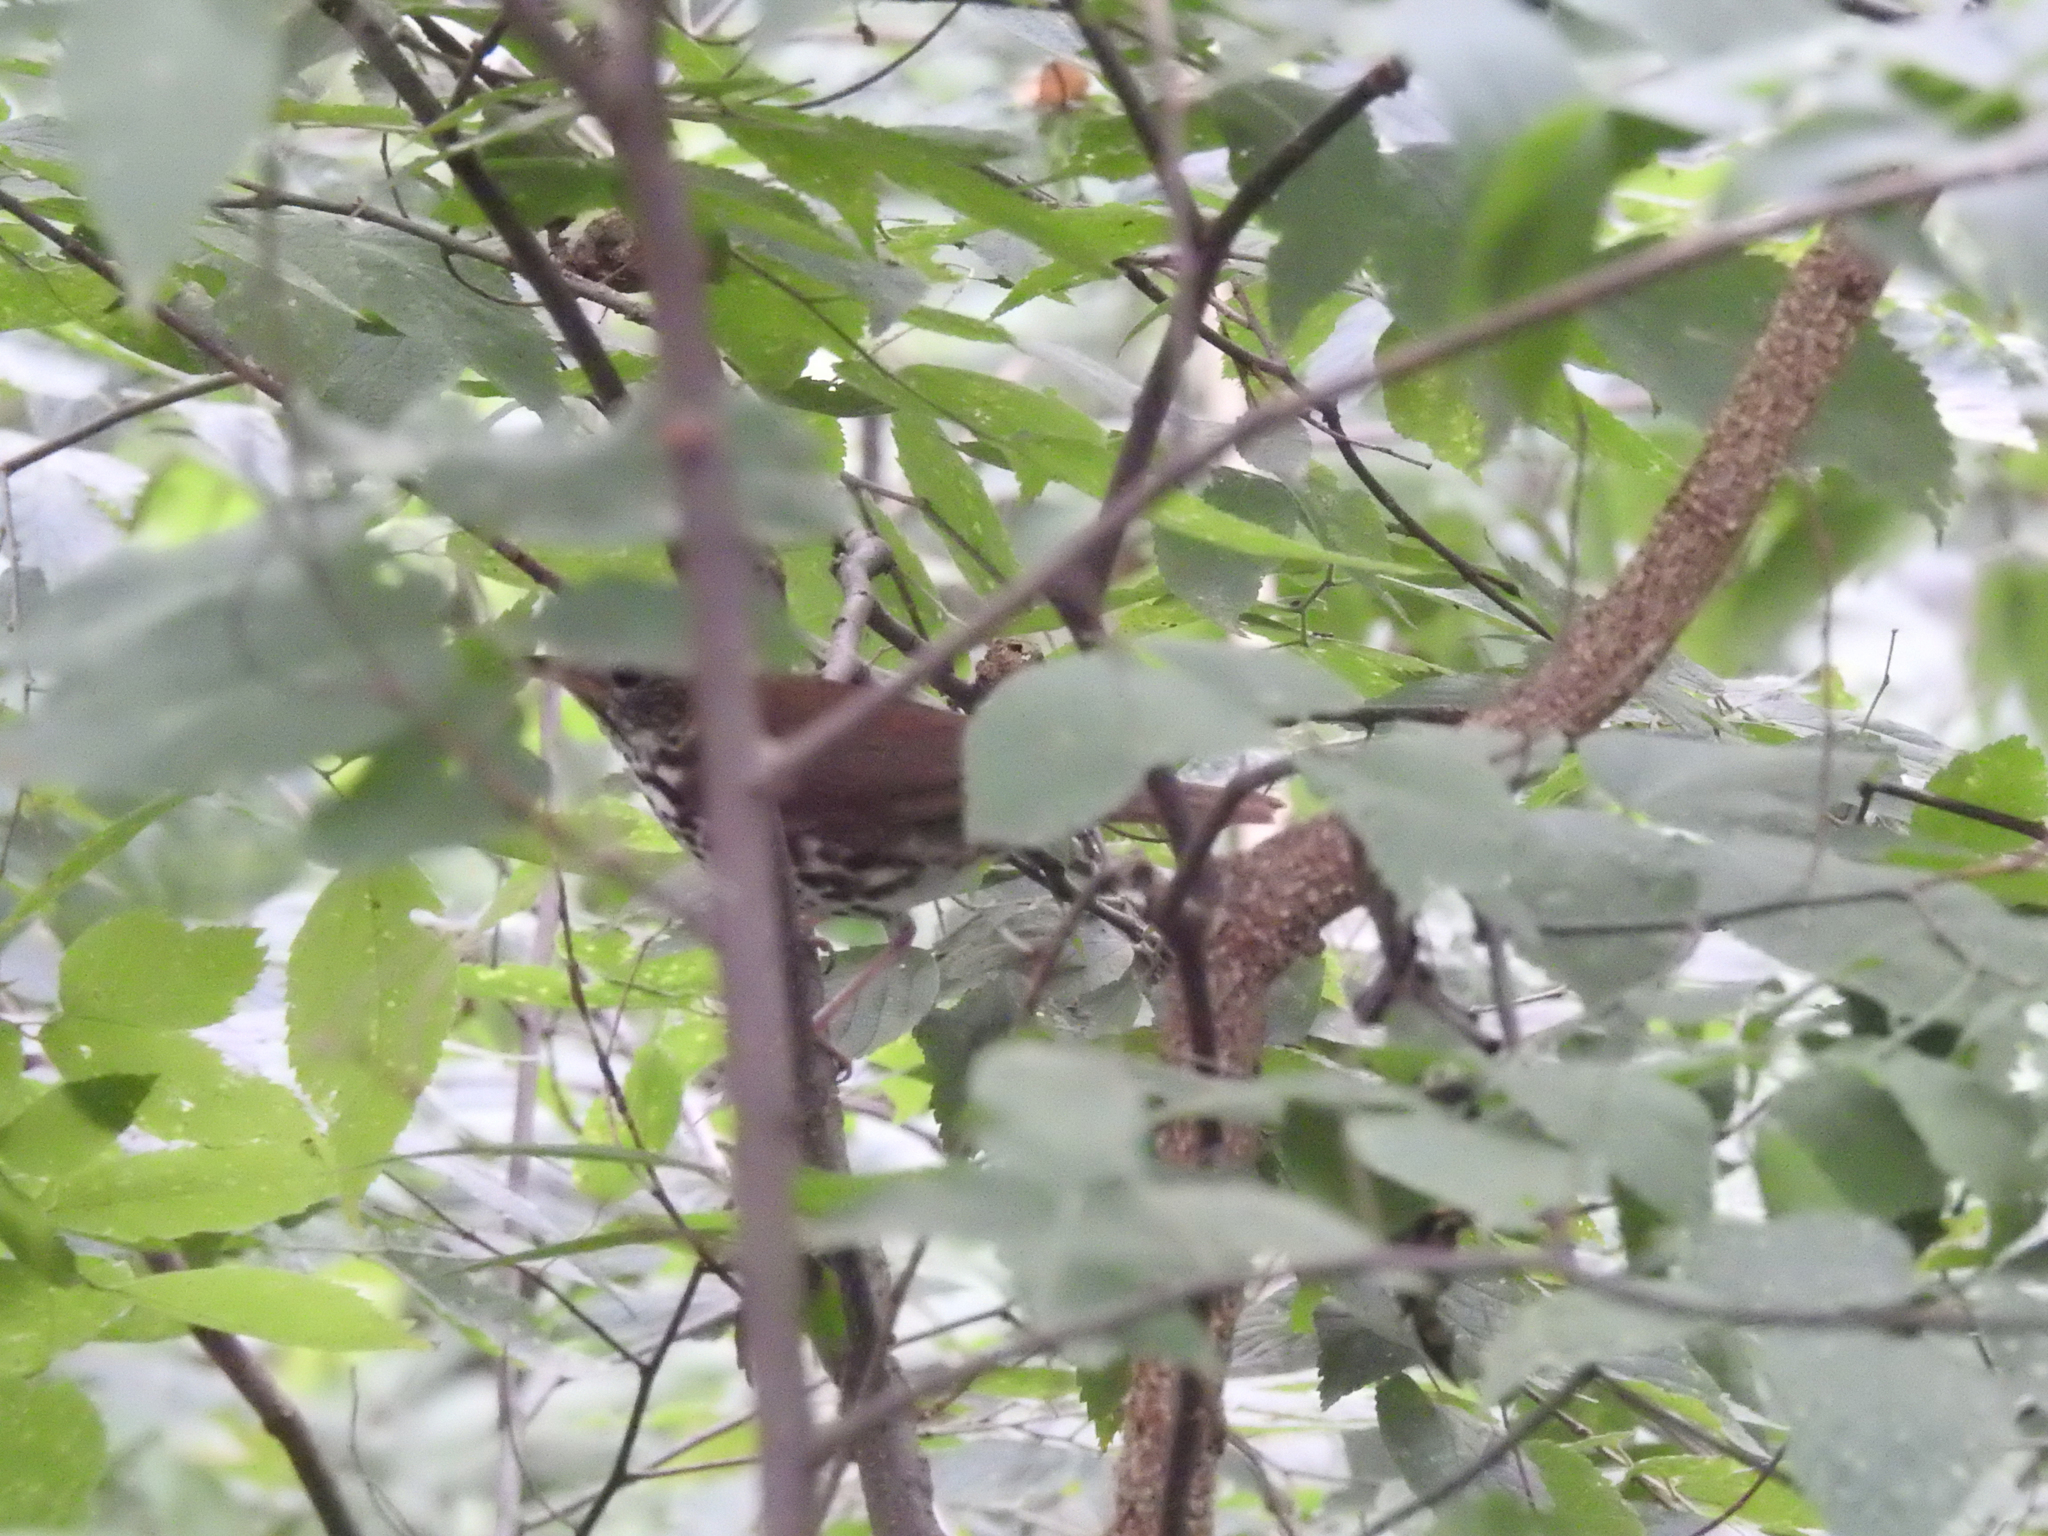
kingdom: Animalia
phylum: Chordata
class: Aves
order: Passeriformes
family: Turdidae
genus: Hylocichla
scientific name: Hylocichla mustelina
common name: Wood thrush
